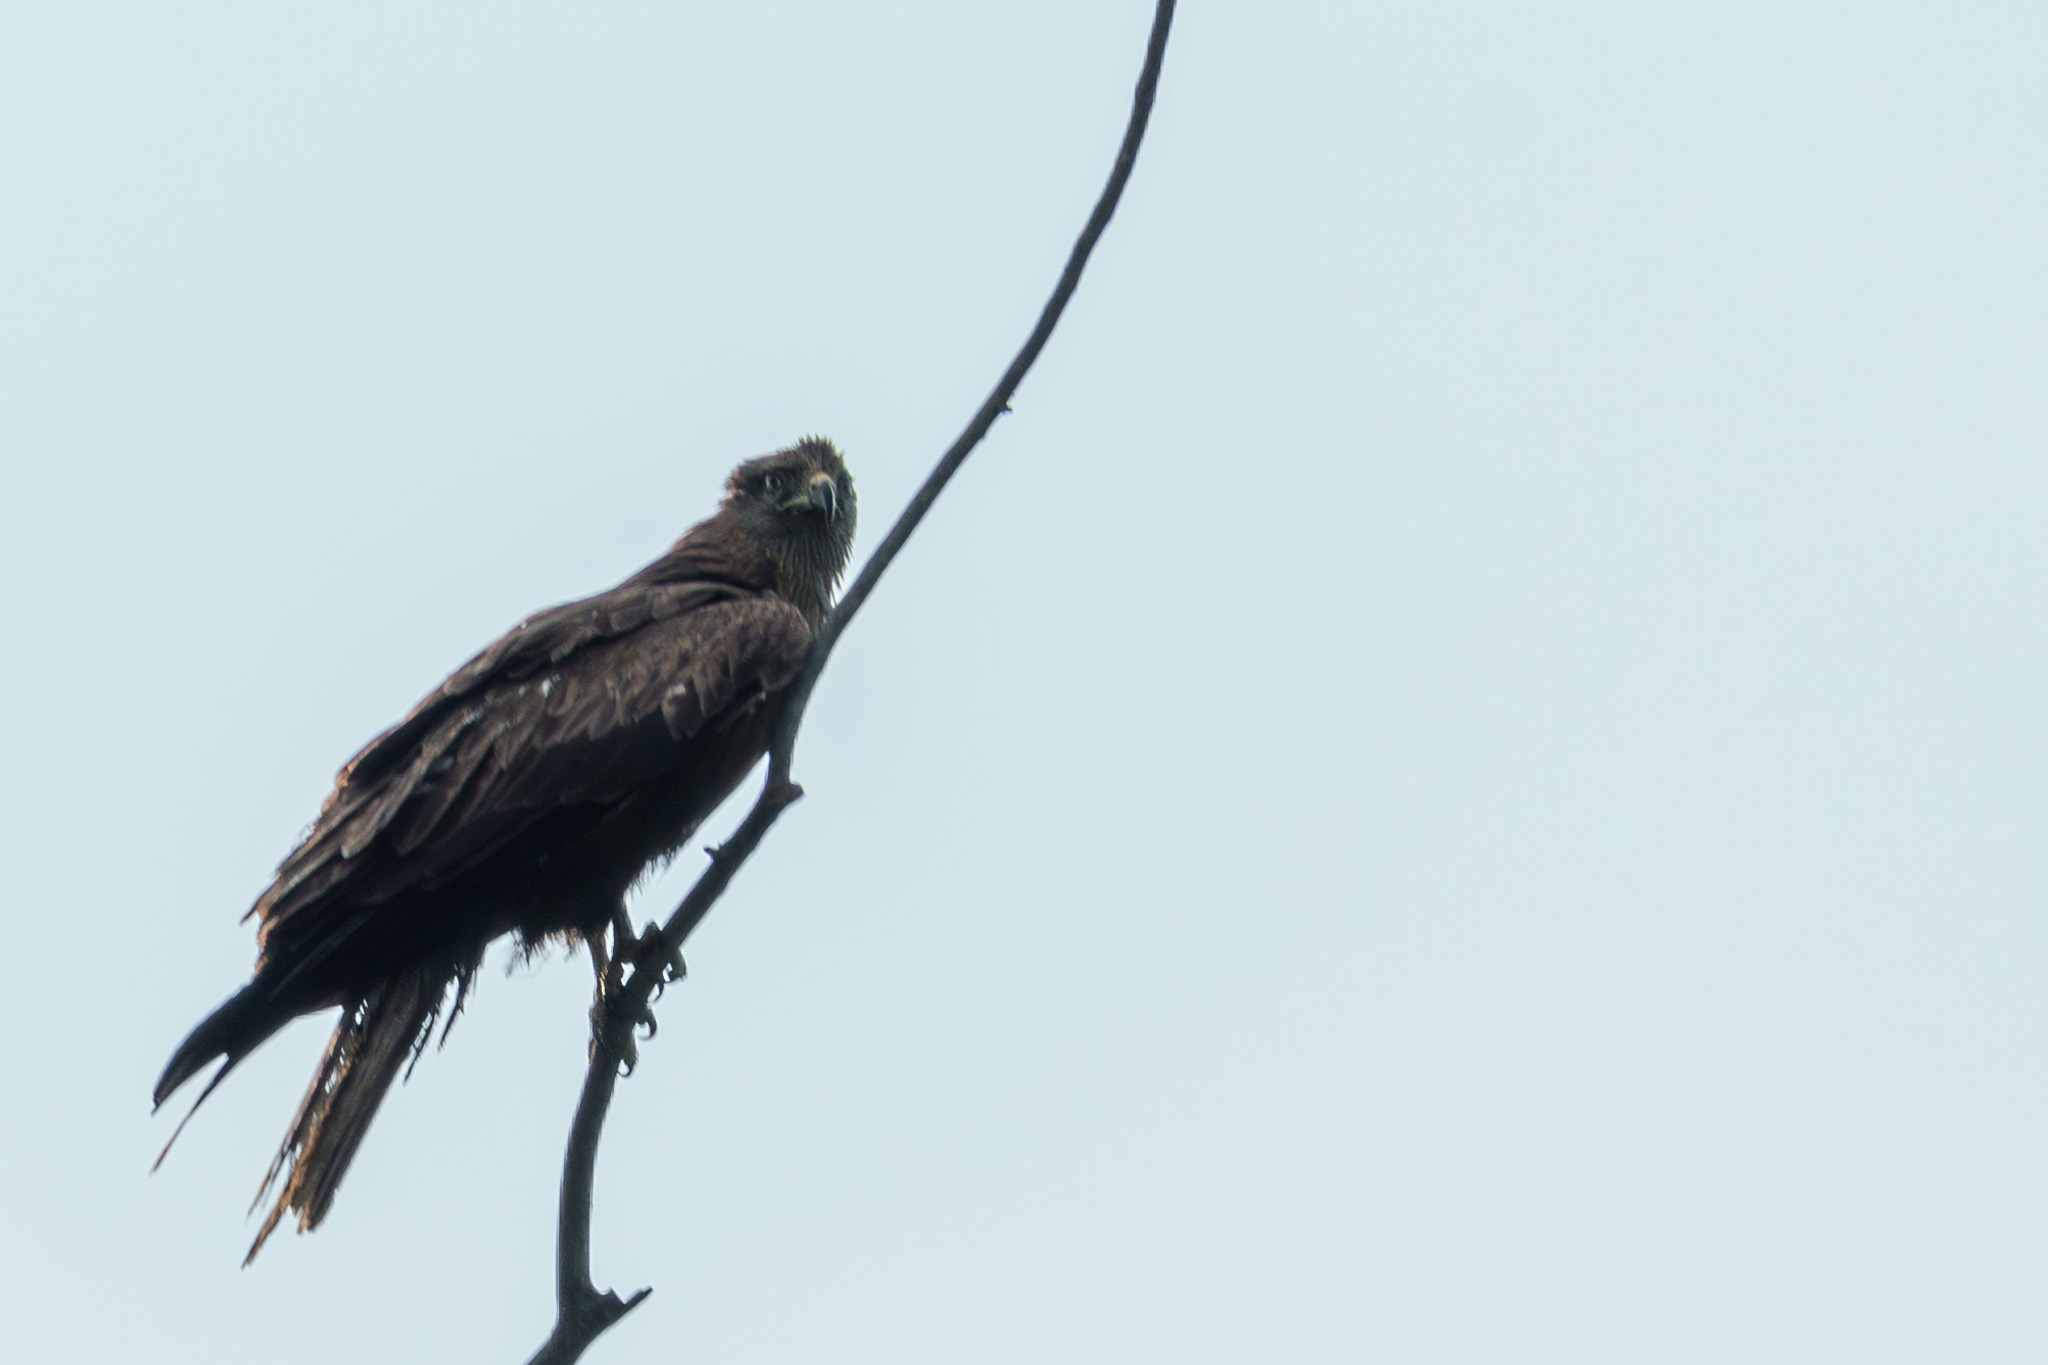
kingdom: Animalia
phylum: Chordata
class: Aves
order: Accipitriformes
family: Accipitridae
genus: Milvus
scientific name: Milvus migrans
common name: Black kite
